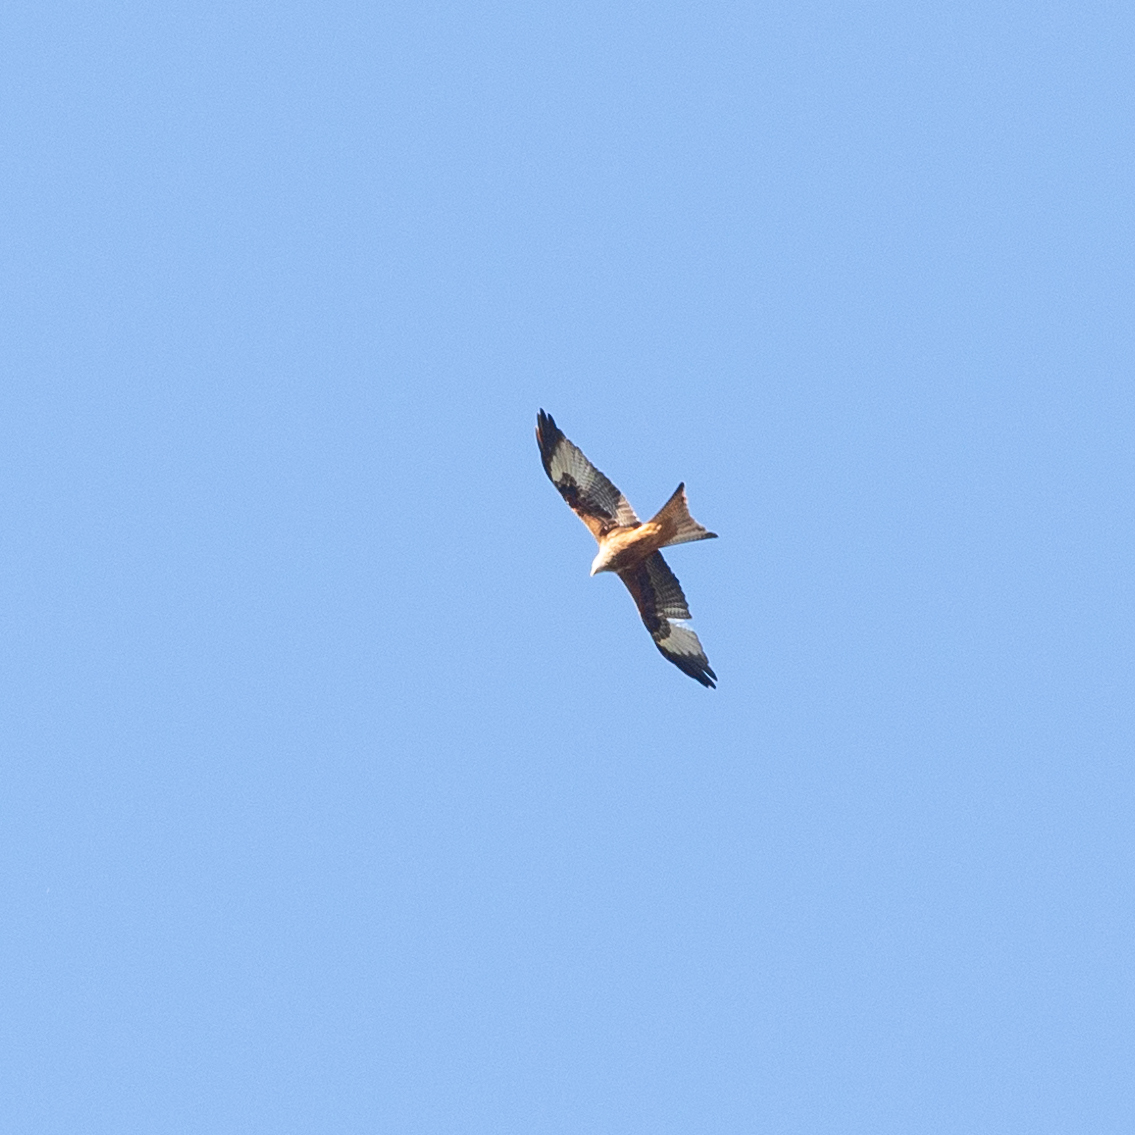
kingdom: Animalia
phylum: Chordata
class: Aves
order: Accipitriformes
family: Accipitridae
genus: Milvus
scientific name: Milvus milvus
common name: Red kite
